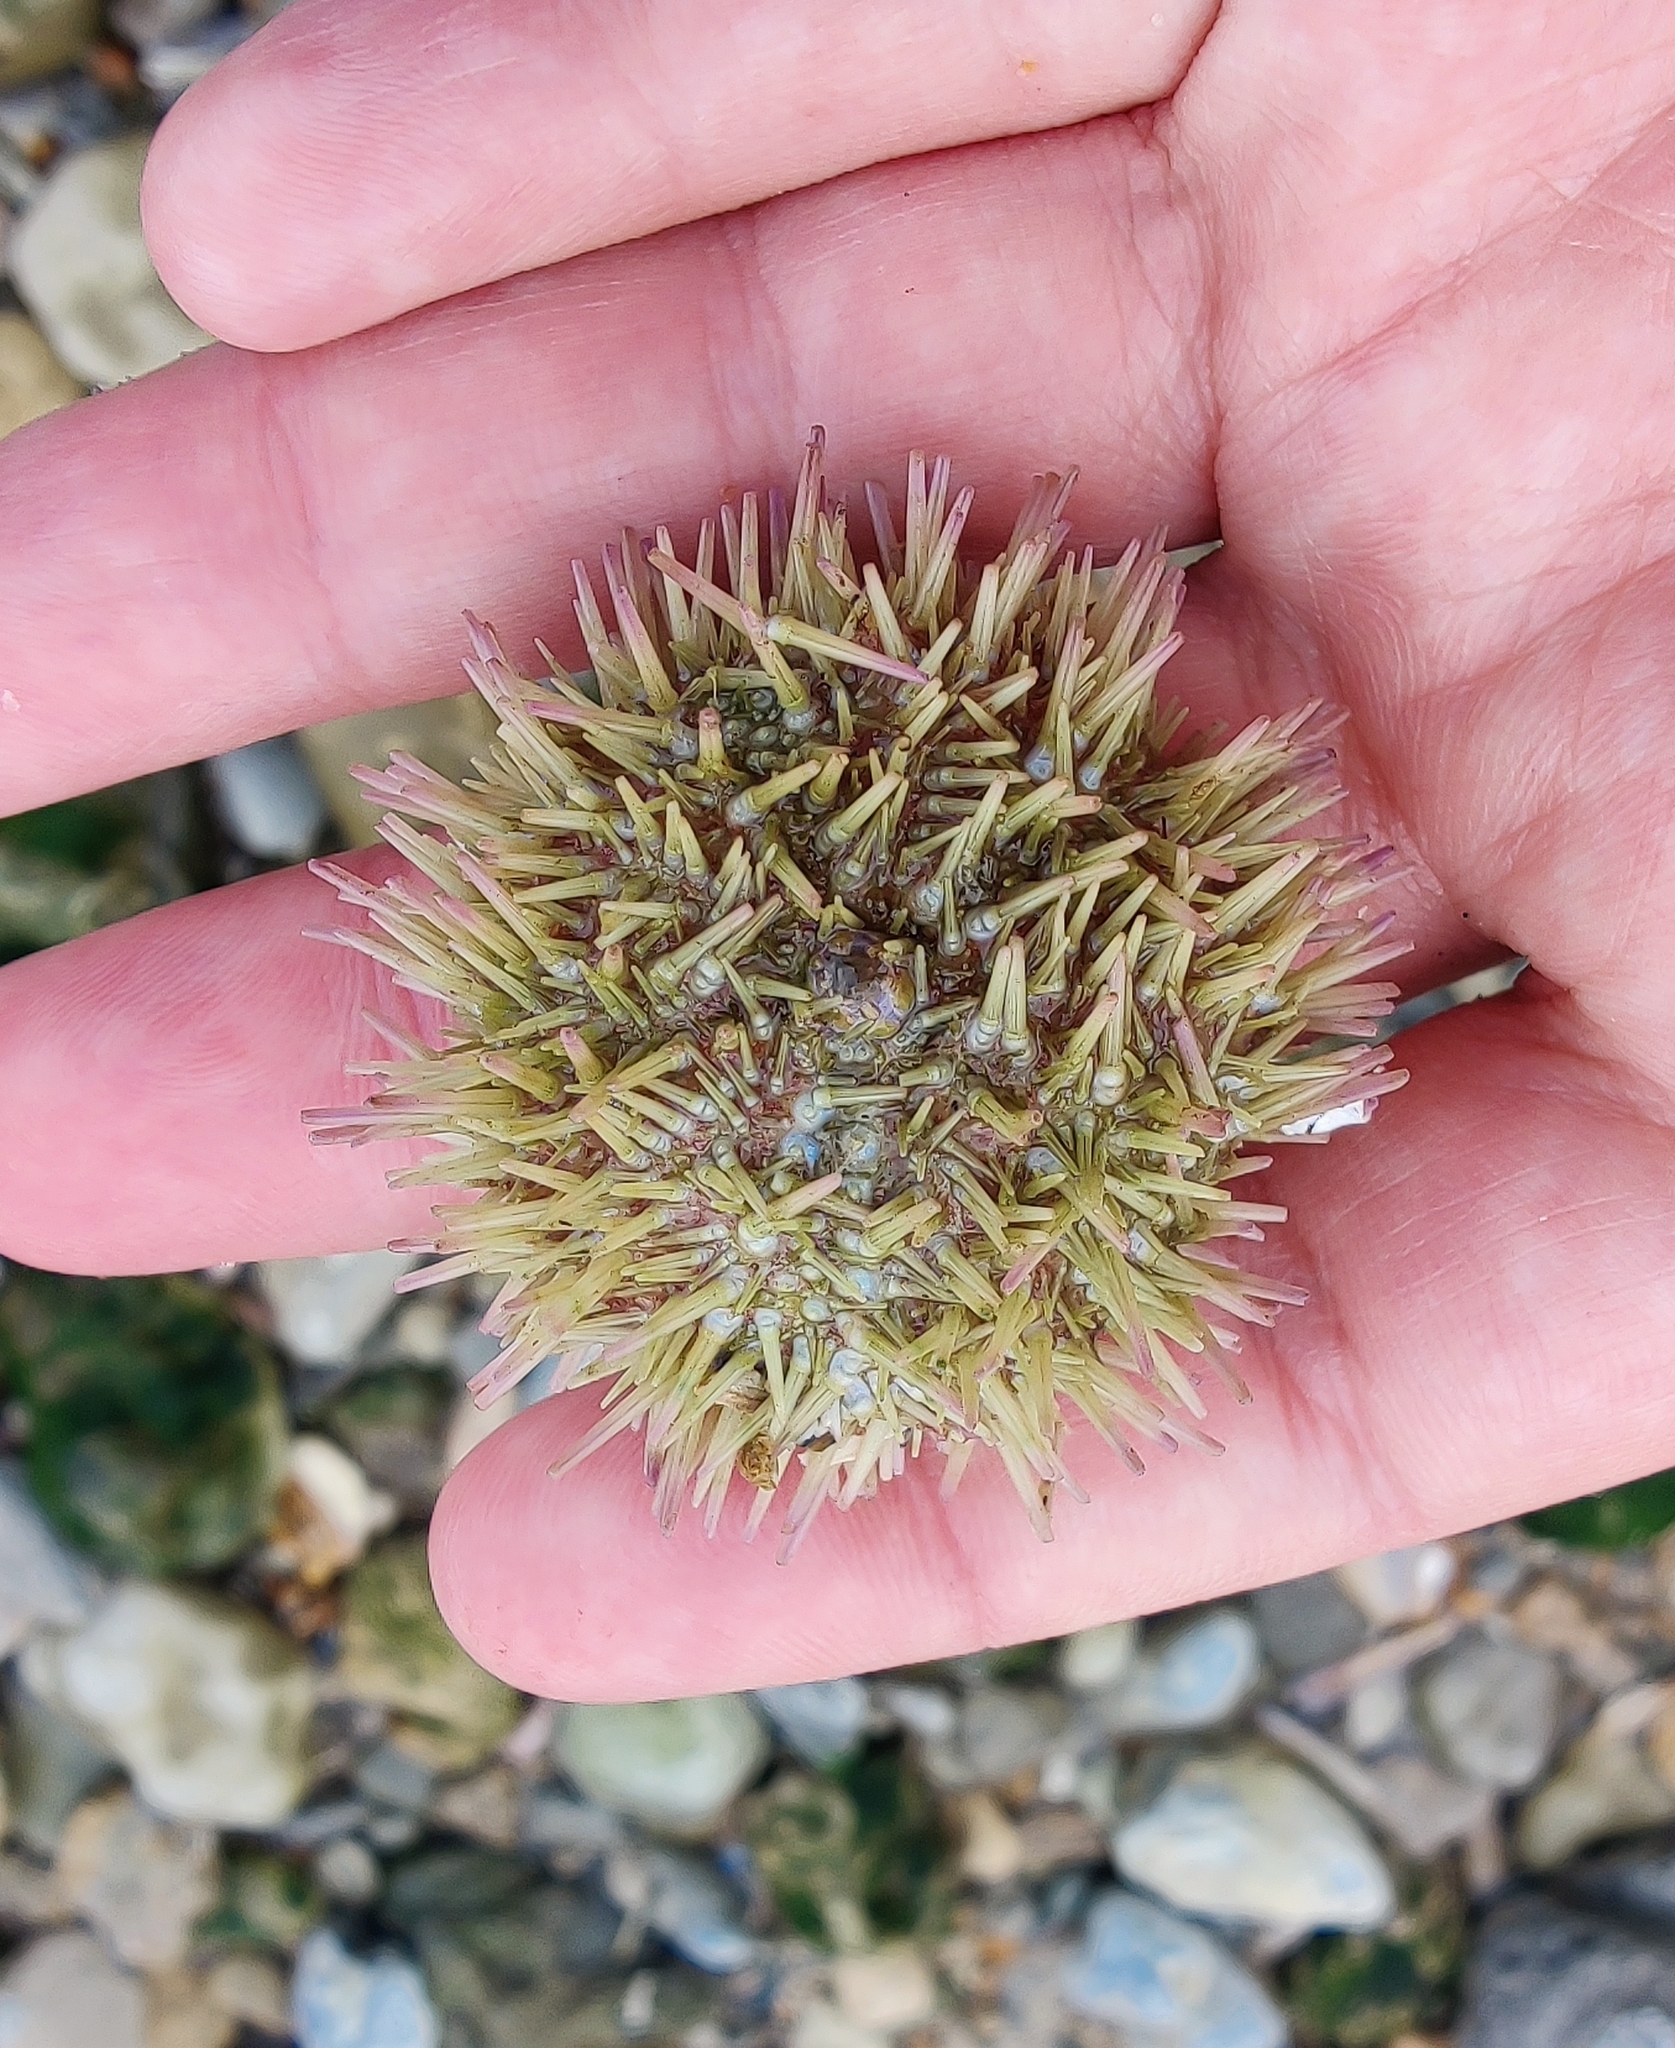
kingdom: Animalia
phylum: Echinodermata
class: Echinoidea
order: Camarodonta
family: Parechinidae
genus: Psammechinus
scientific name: Psammechinus miliaris
